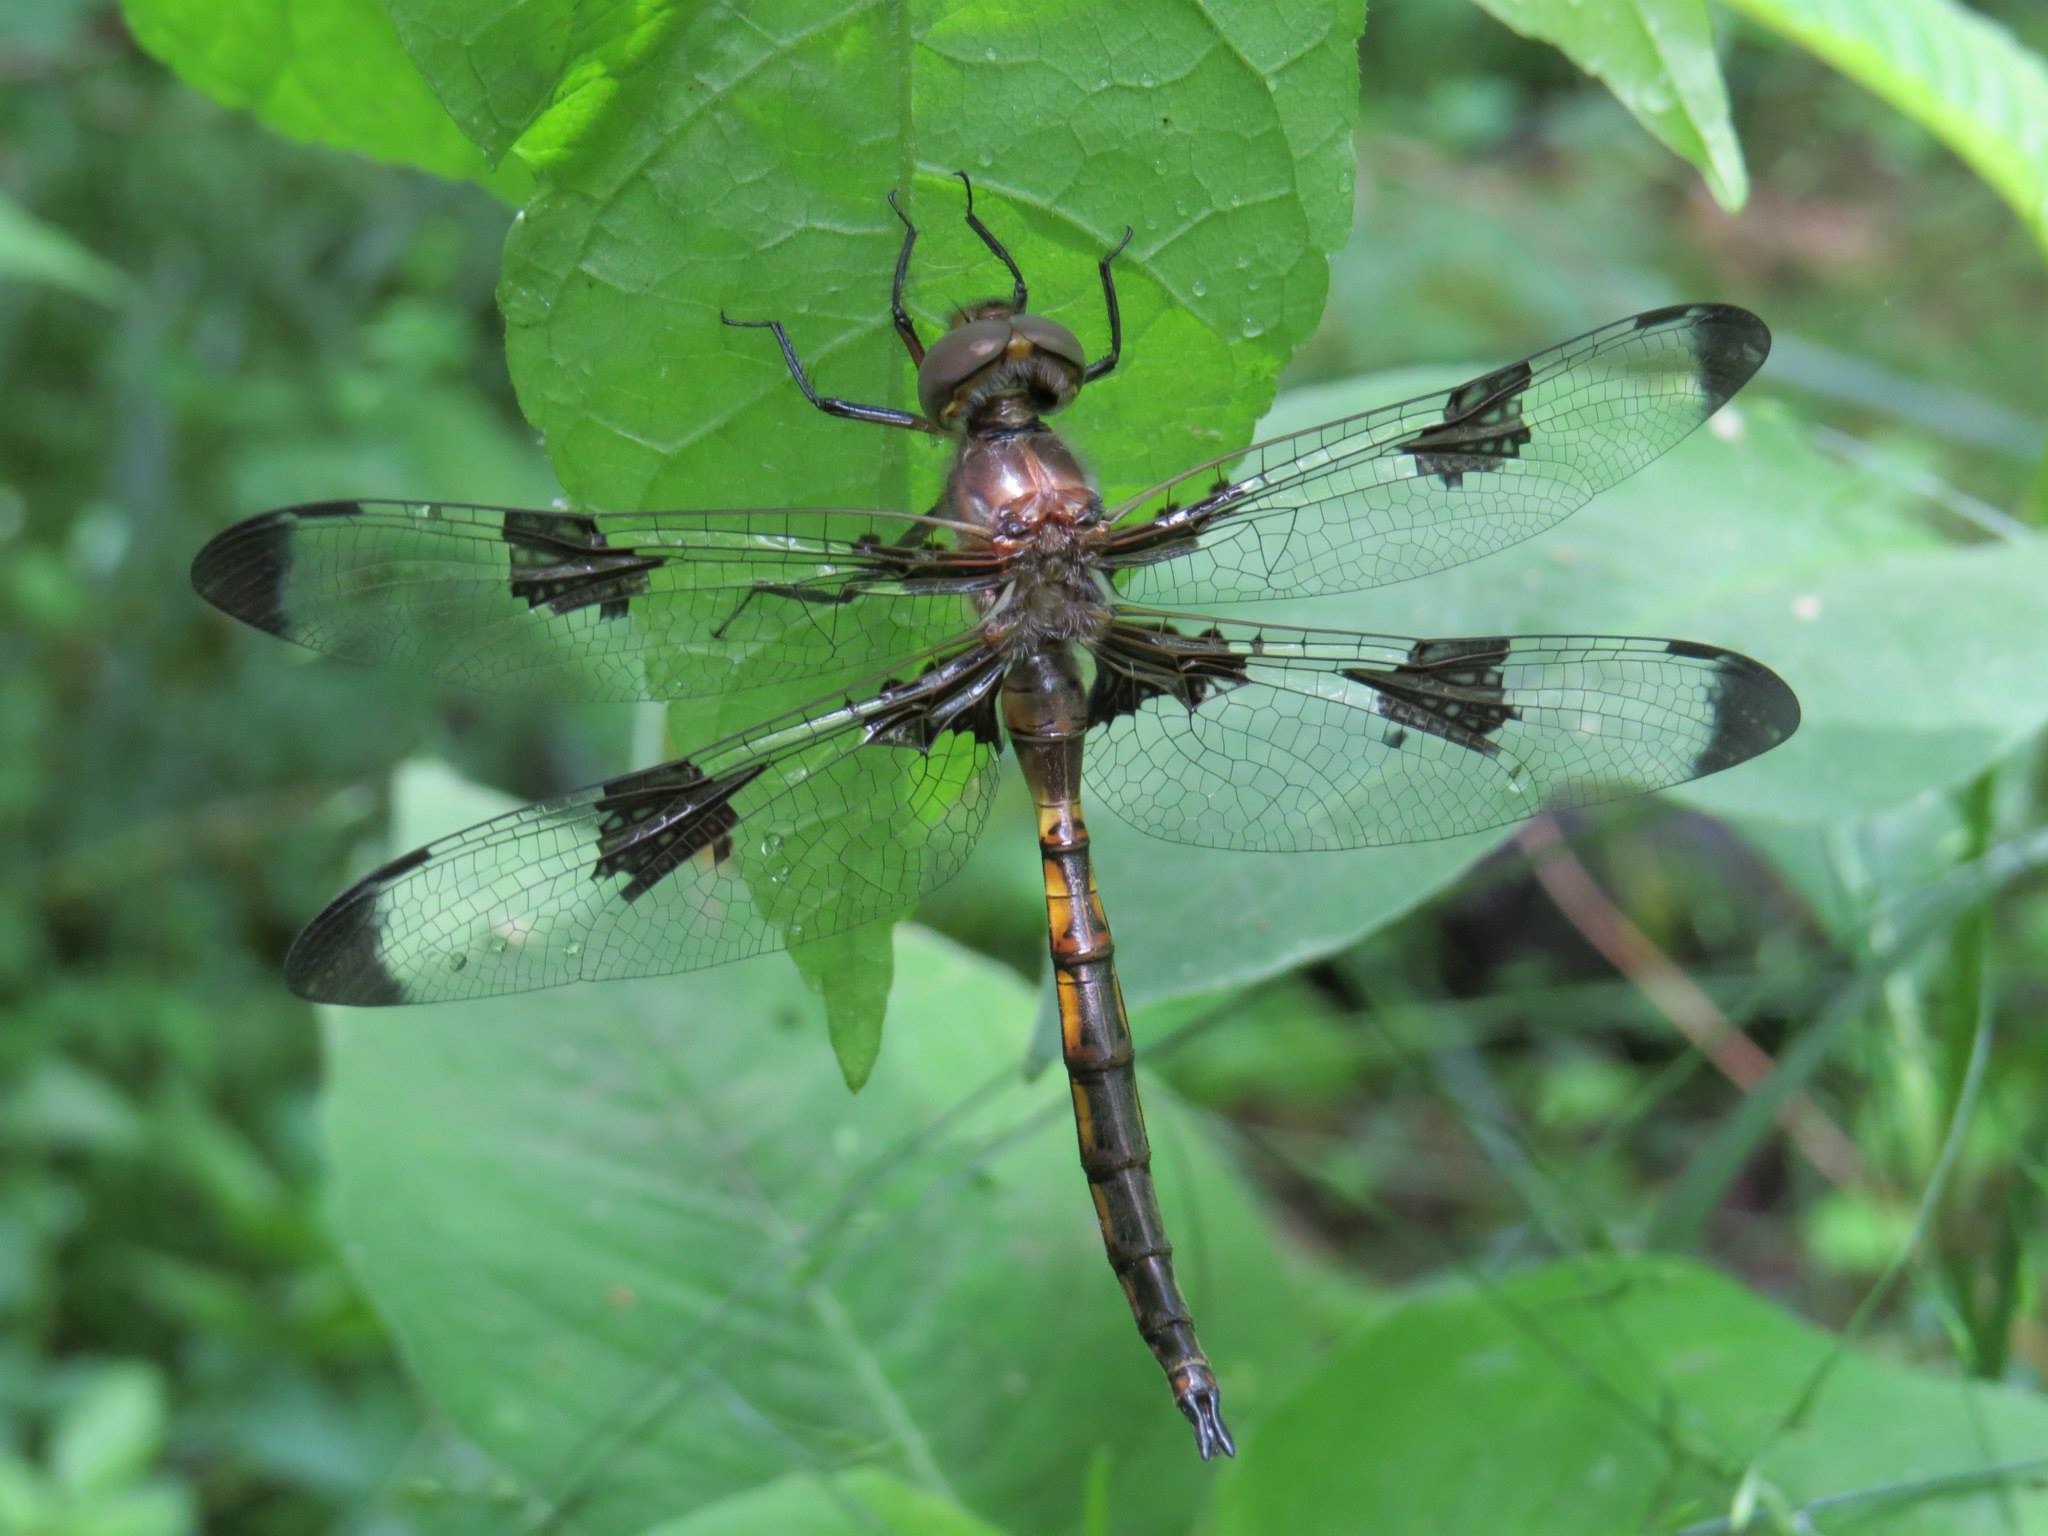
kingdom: Animalia
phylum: Arthropoda
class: Insecta
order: Odonata
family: Corduliidae
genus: Epitheca
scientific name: Epitheca princeps
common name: Prince baskettail
